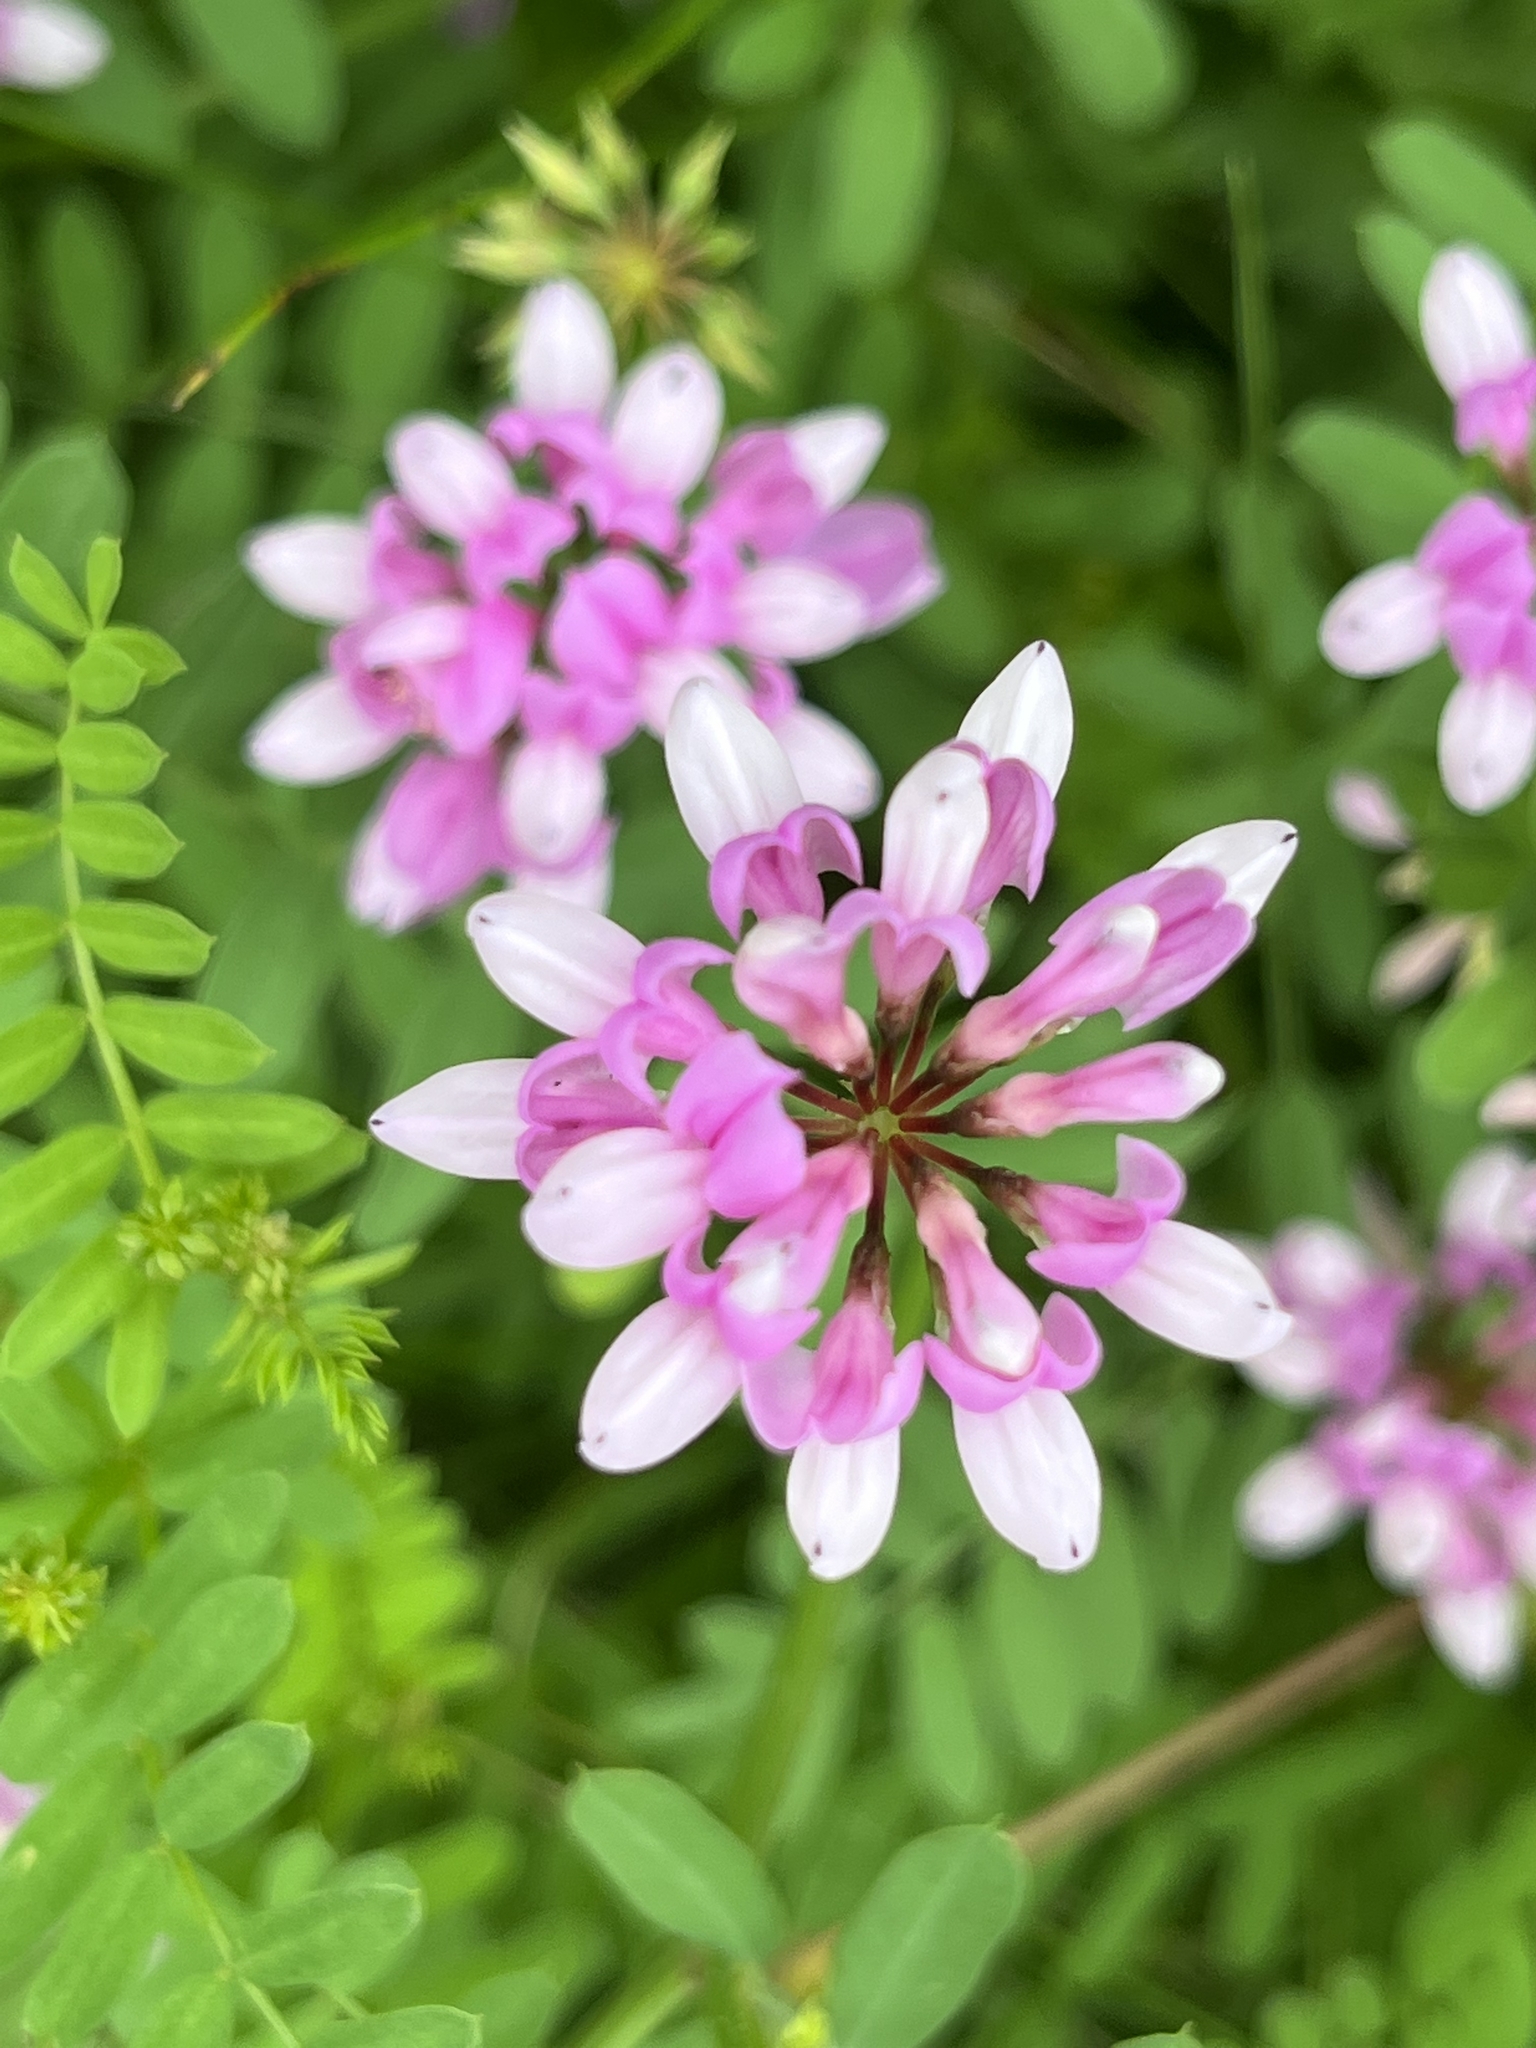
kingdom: Plantae
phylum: Tracheophyta
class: Magnoliopsida
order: Fabales
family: Fabaceae
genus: Coronilla
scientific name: Coronilla varia
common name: Crownvetch
